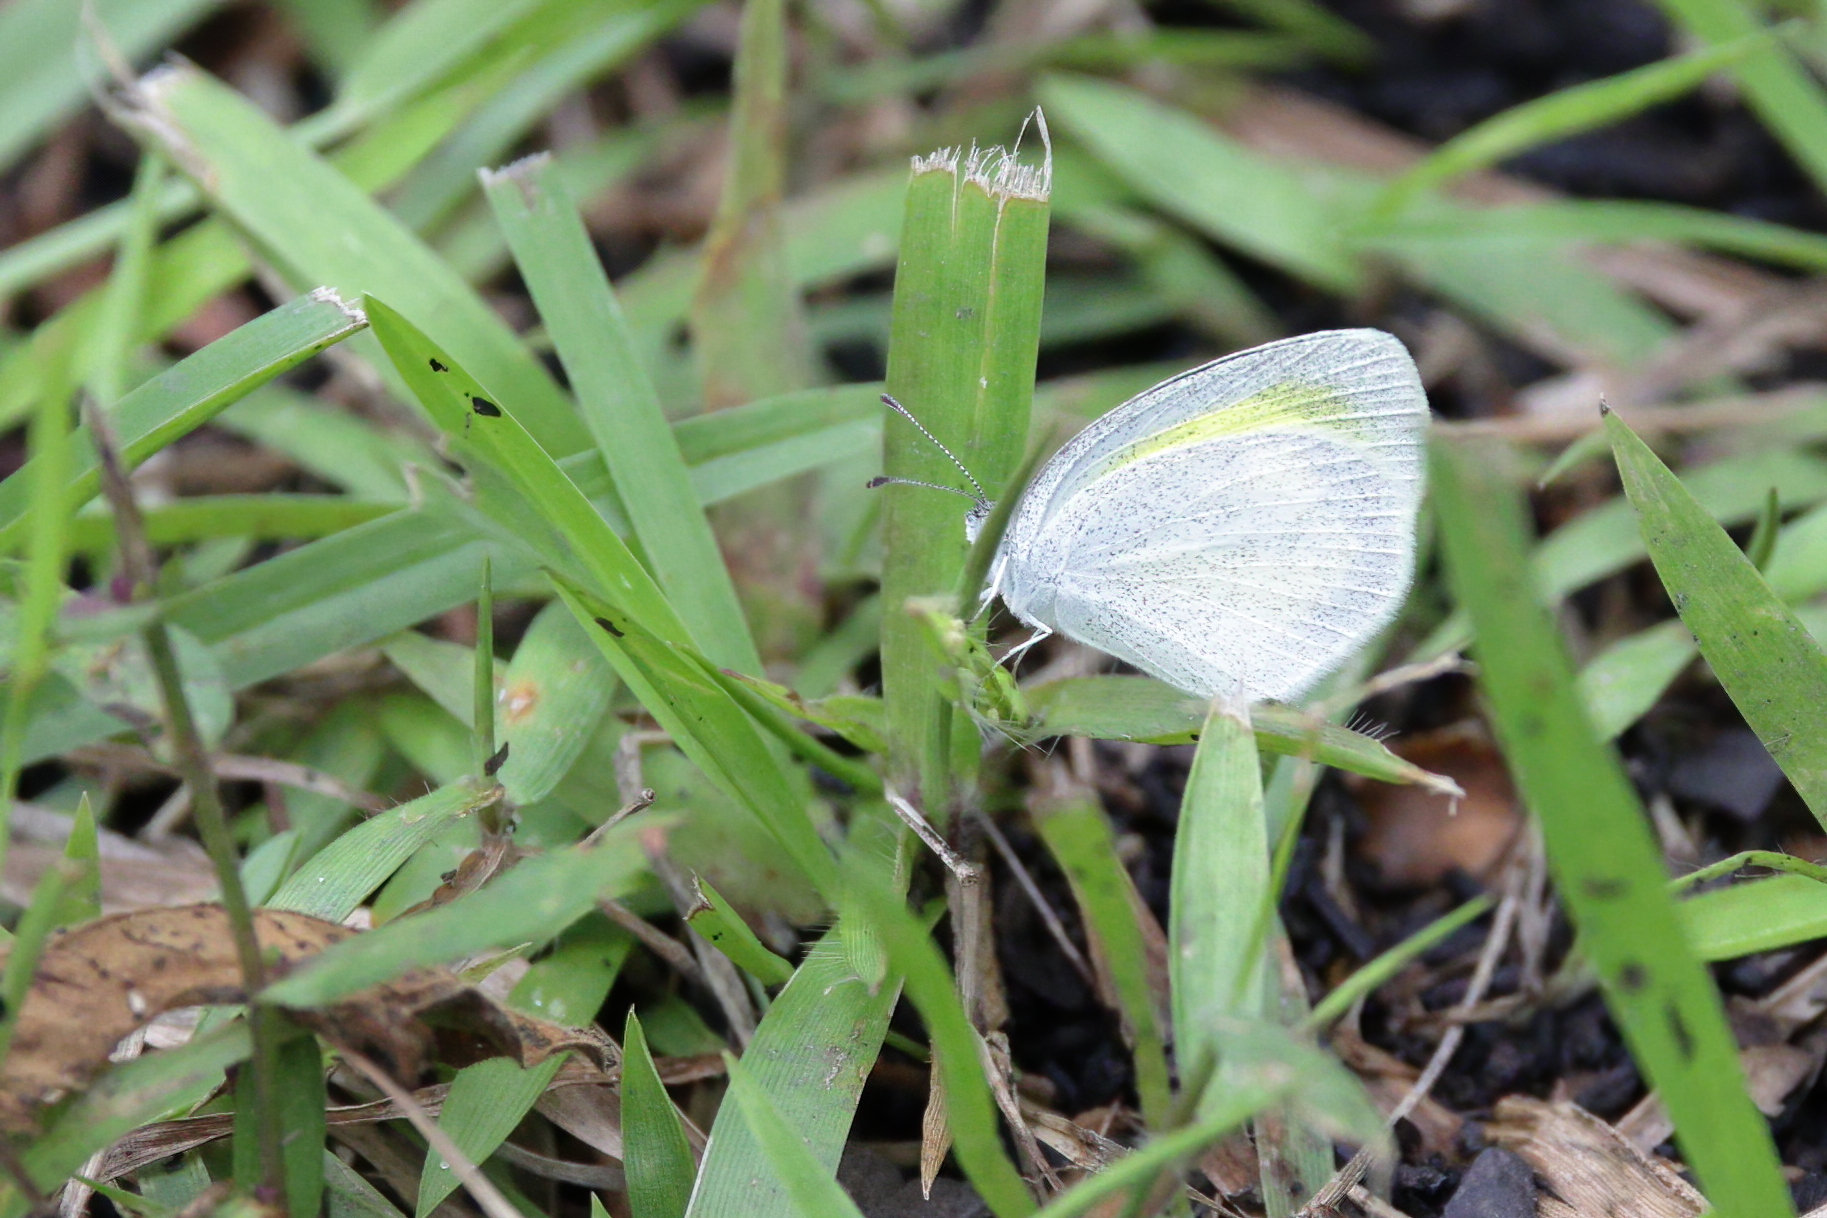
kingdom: Animalia
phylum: Arthropoda
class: Insecta
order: Lepidoptera
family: Pieridae
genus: Eurema
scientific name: Eurema daira
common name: Barred sulphur
